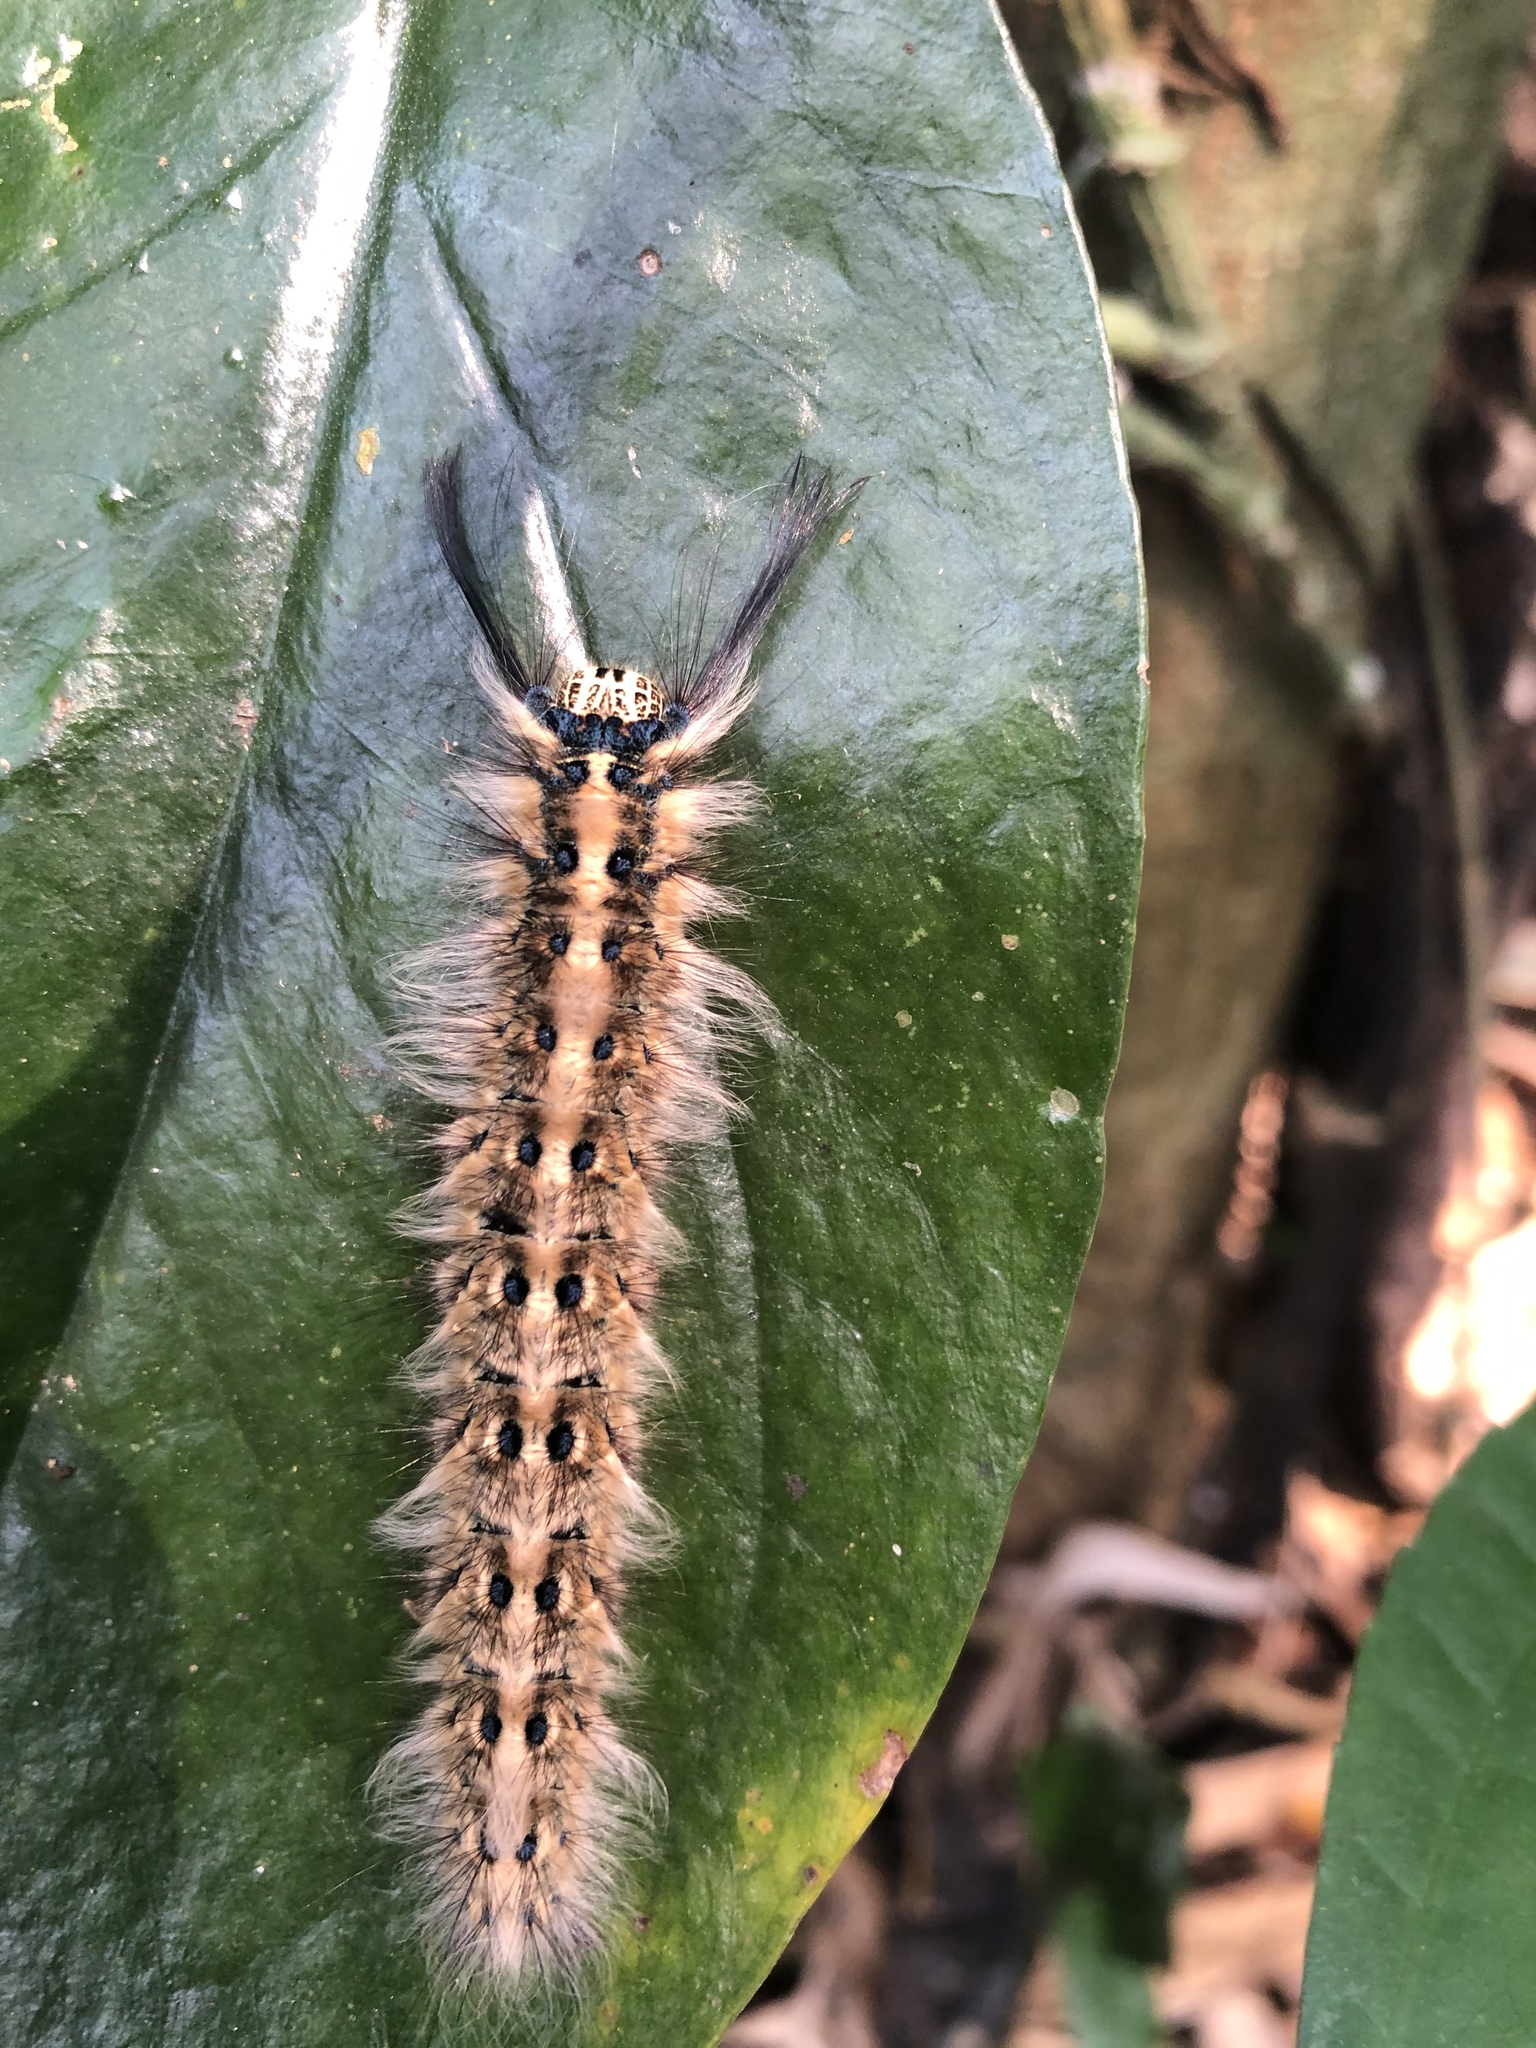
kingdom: Animalia
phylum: Arthropoda
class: Insecta
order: Lepidoptera
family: Lasiocampidae
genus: Trabala
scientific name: Trabala vishnou
